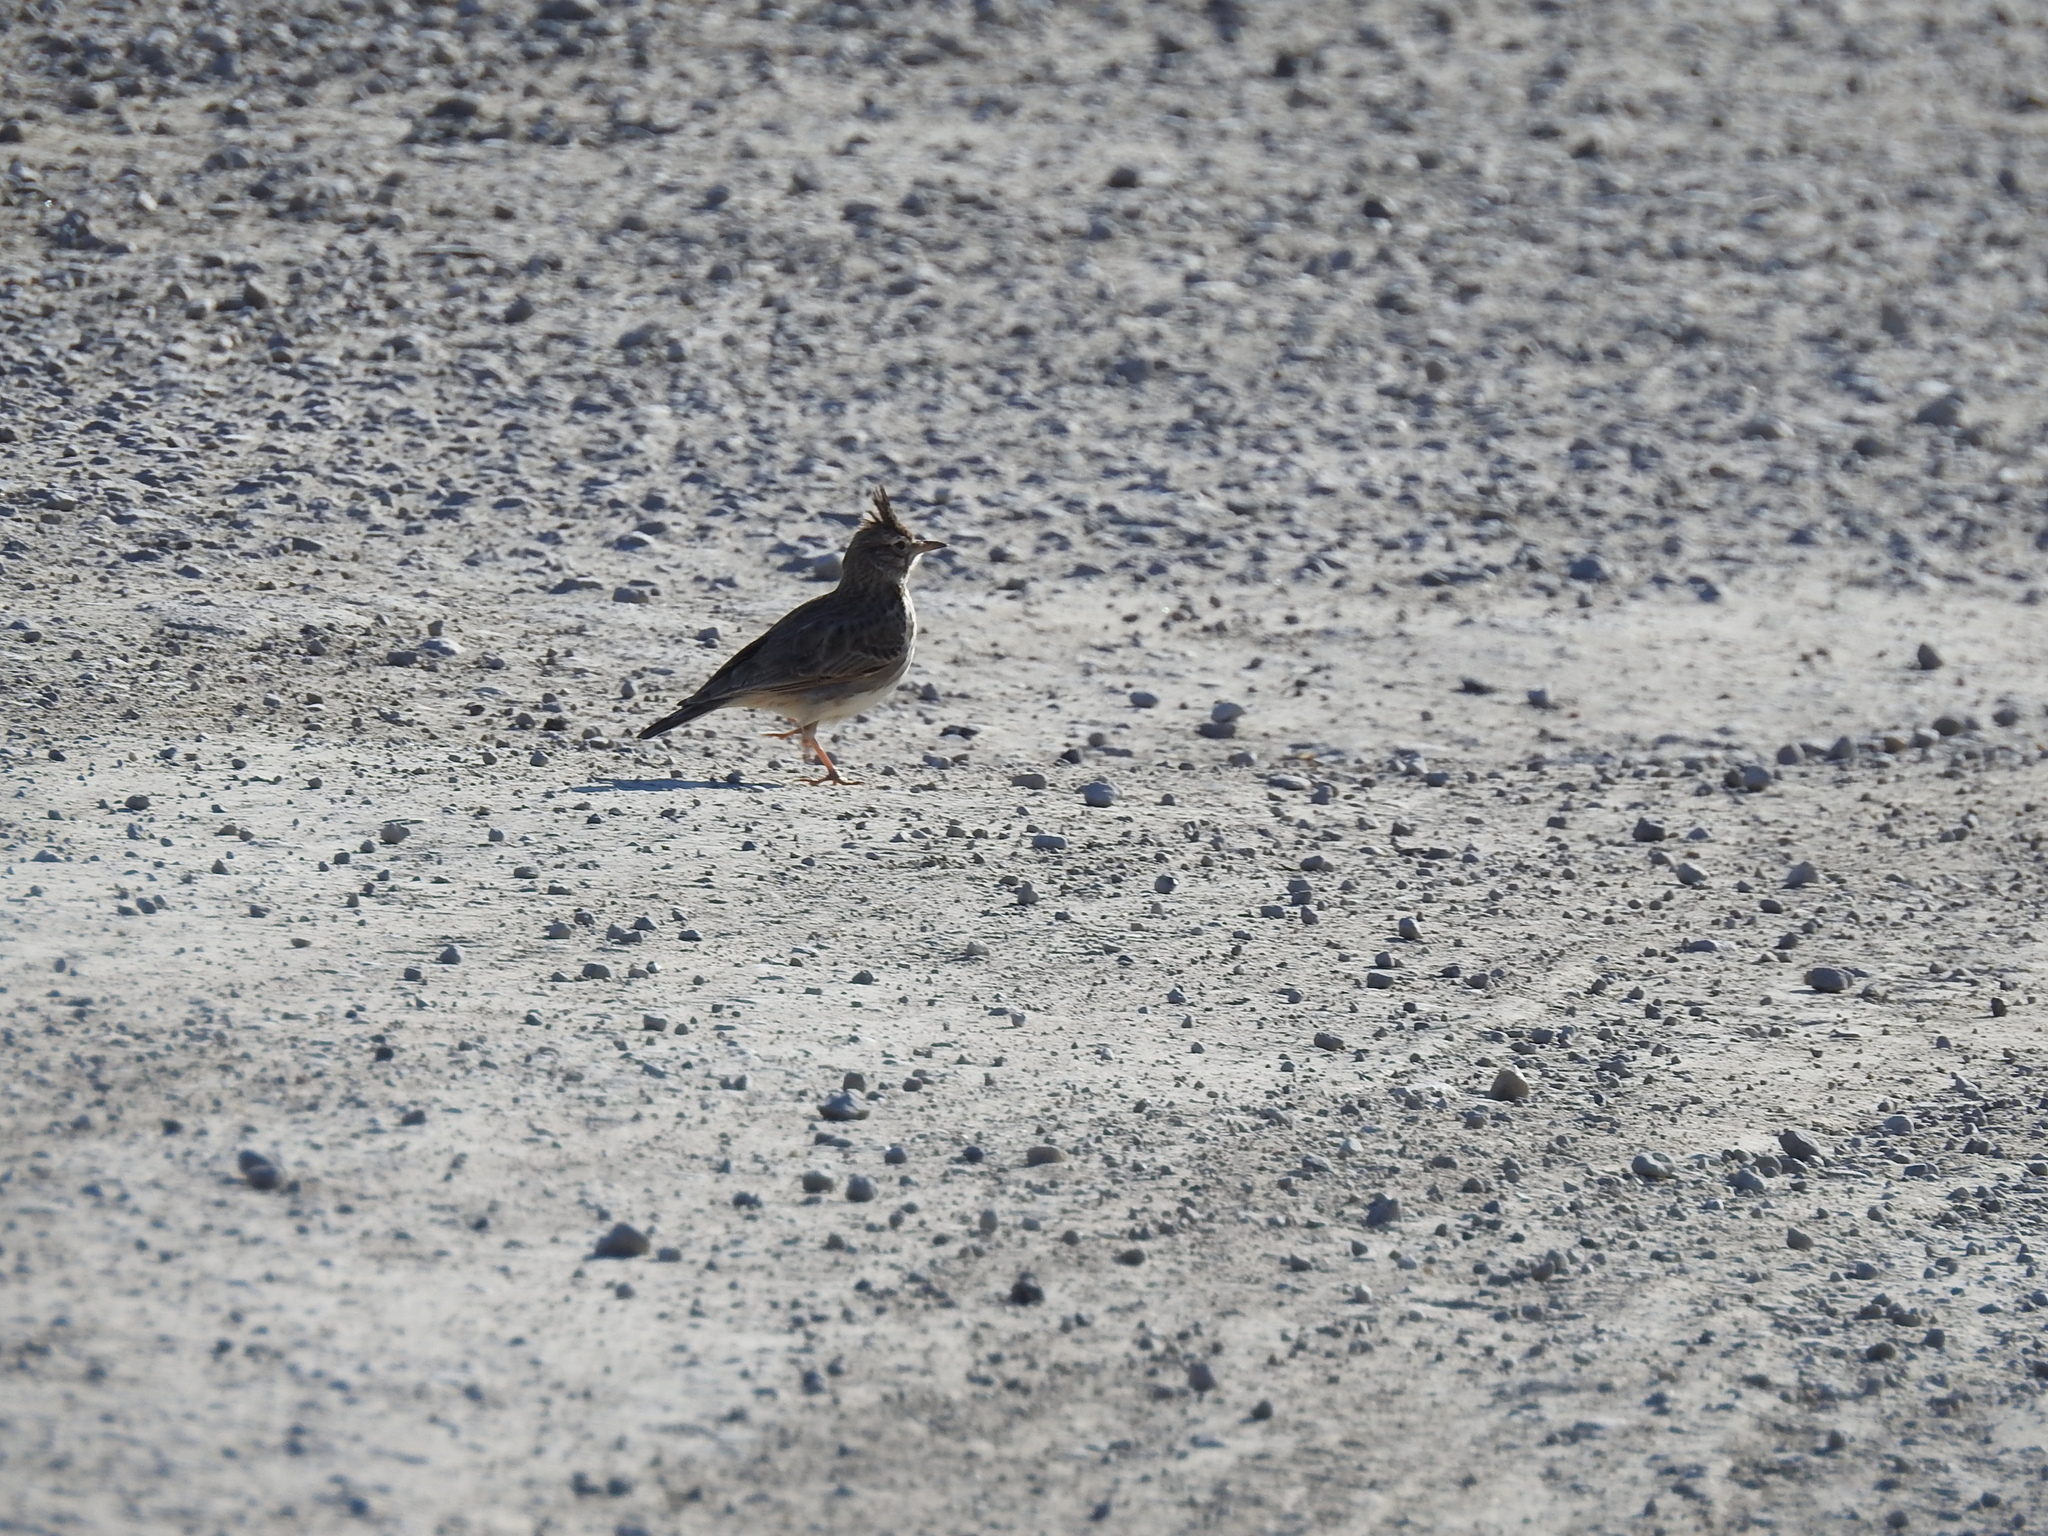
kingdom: Animalia
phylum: Chordata
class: Aves
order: Passeriformes
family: Alaudidae
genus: Galerida
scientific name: Galerida cristata
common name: Crested lark
